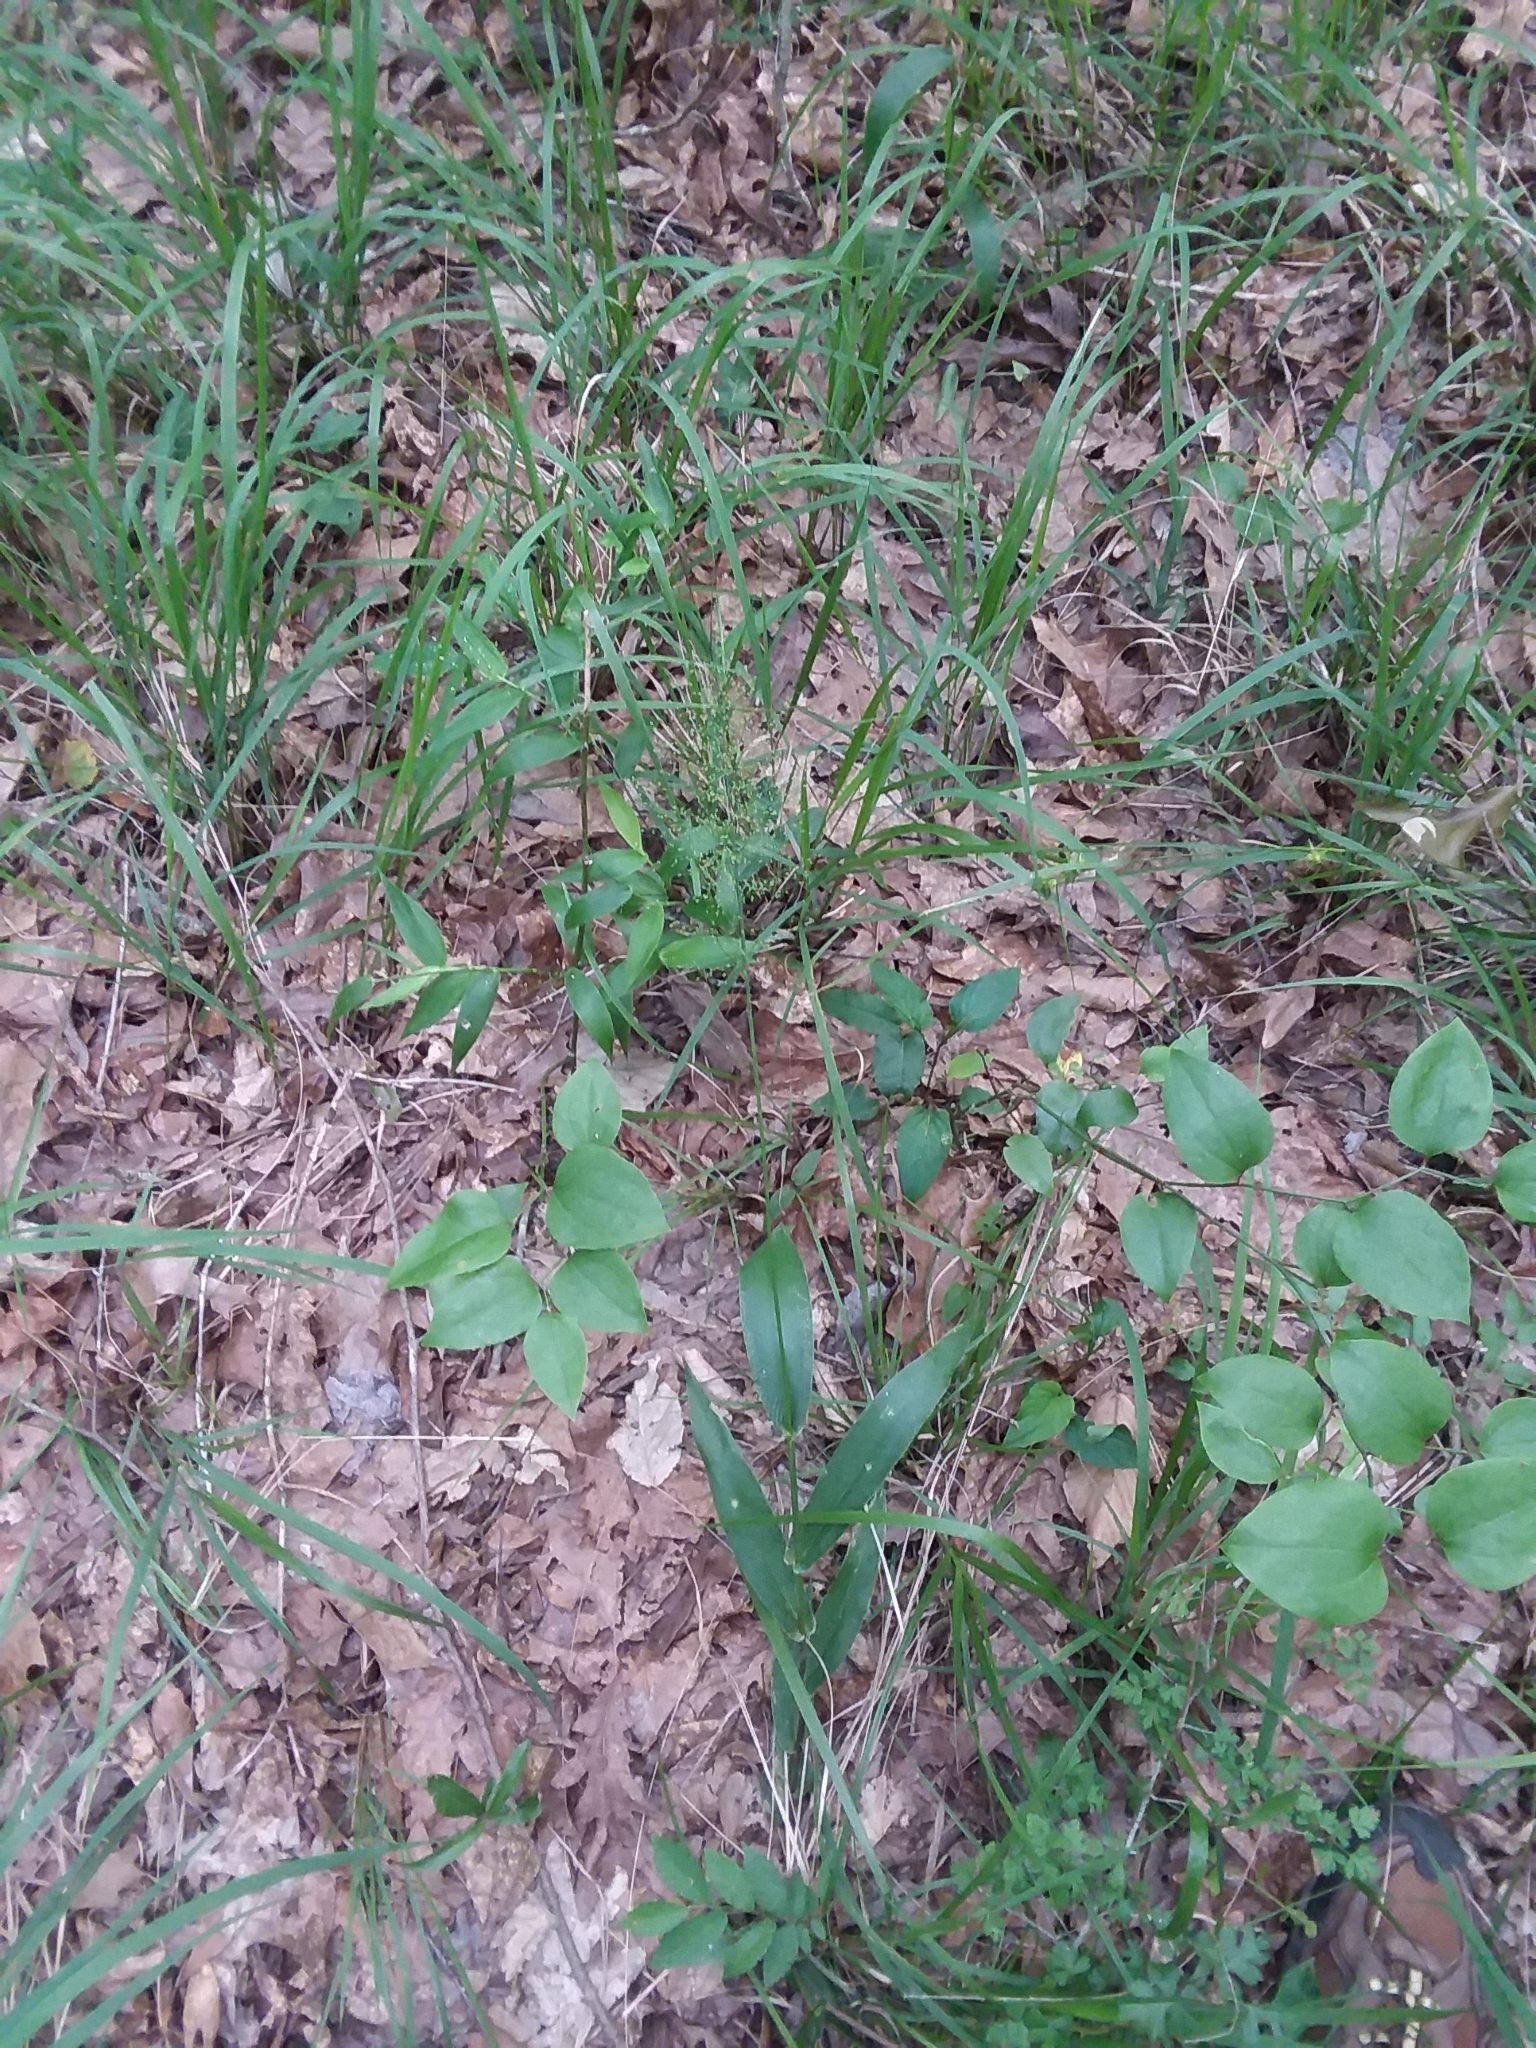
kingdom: Plantae
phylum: Tracheophyta
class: Liliopsida
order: Poales
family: Poaceae
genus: Dichanthelium
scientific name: Dichanthelium polyanthes
